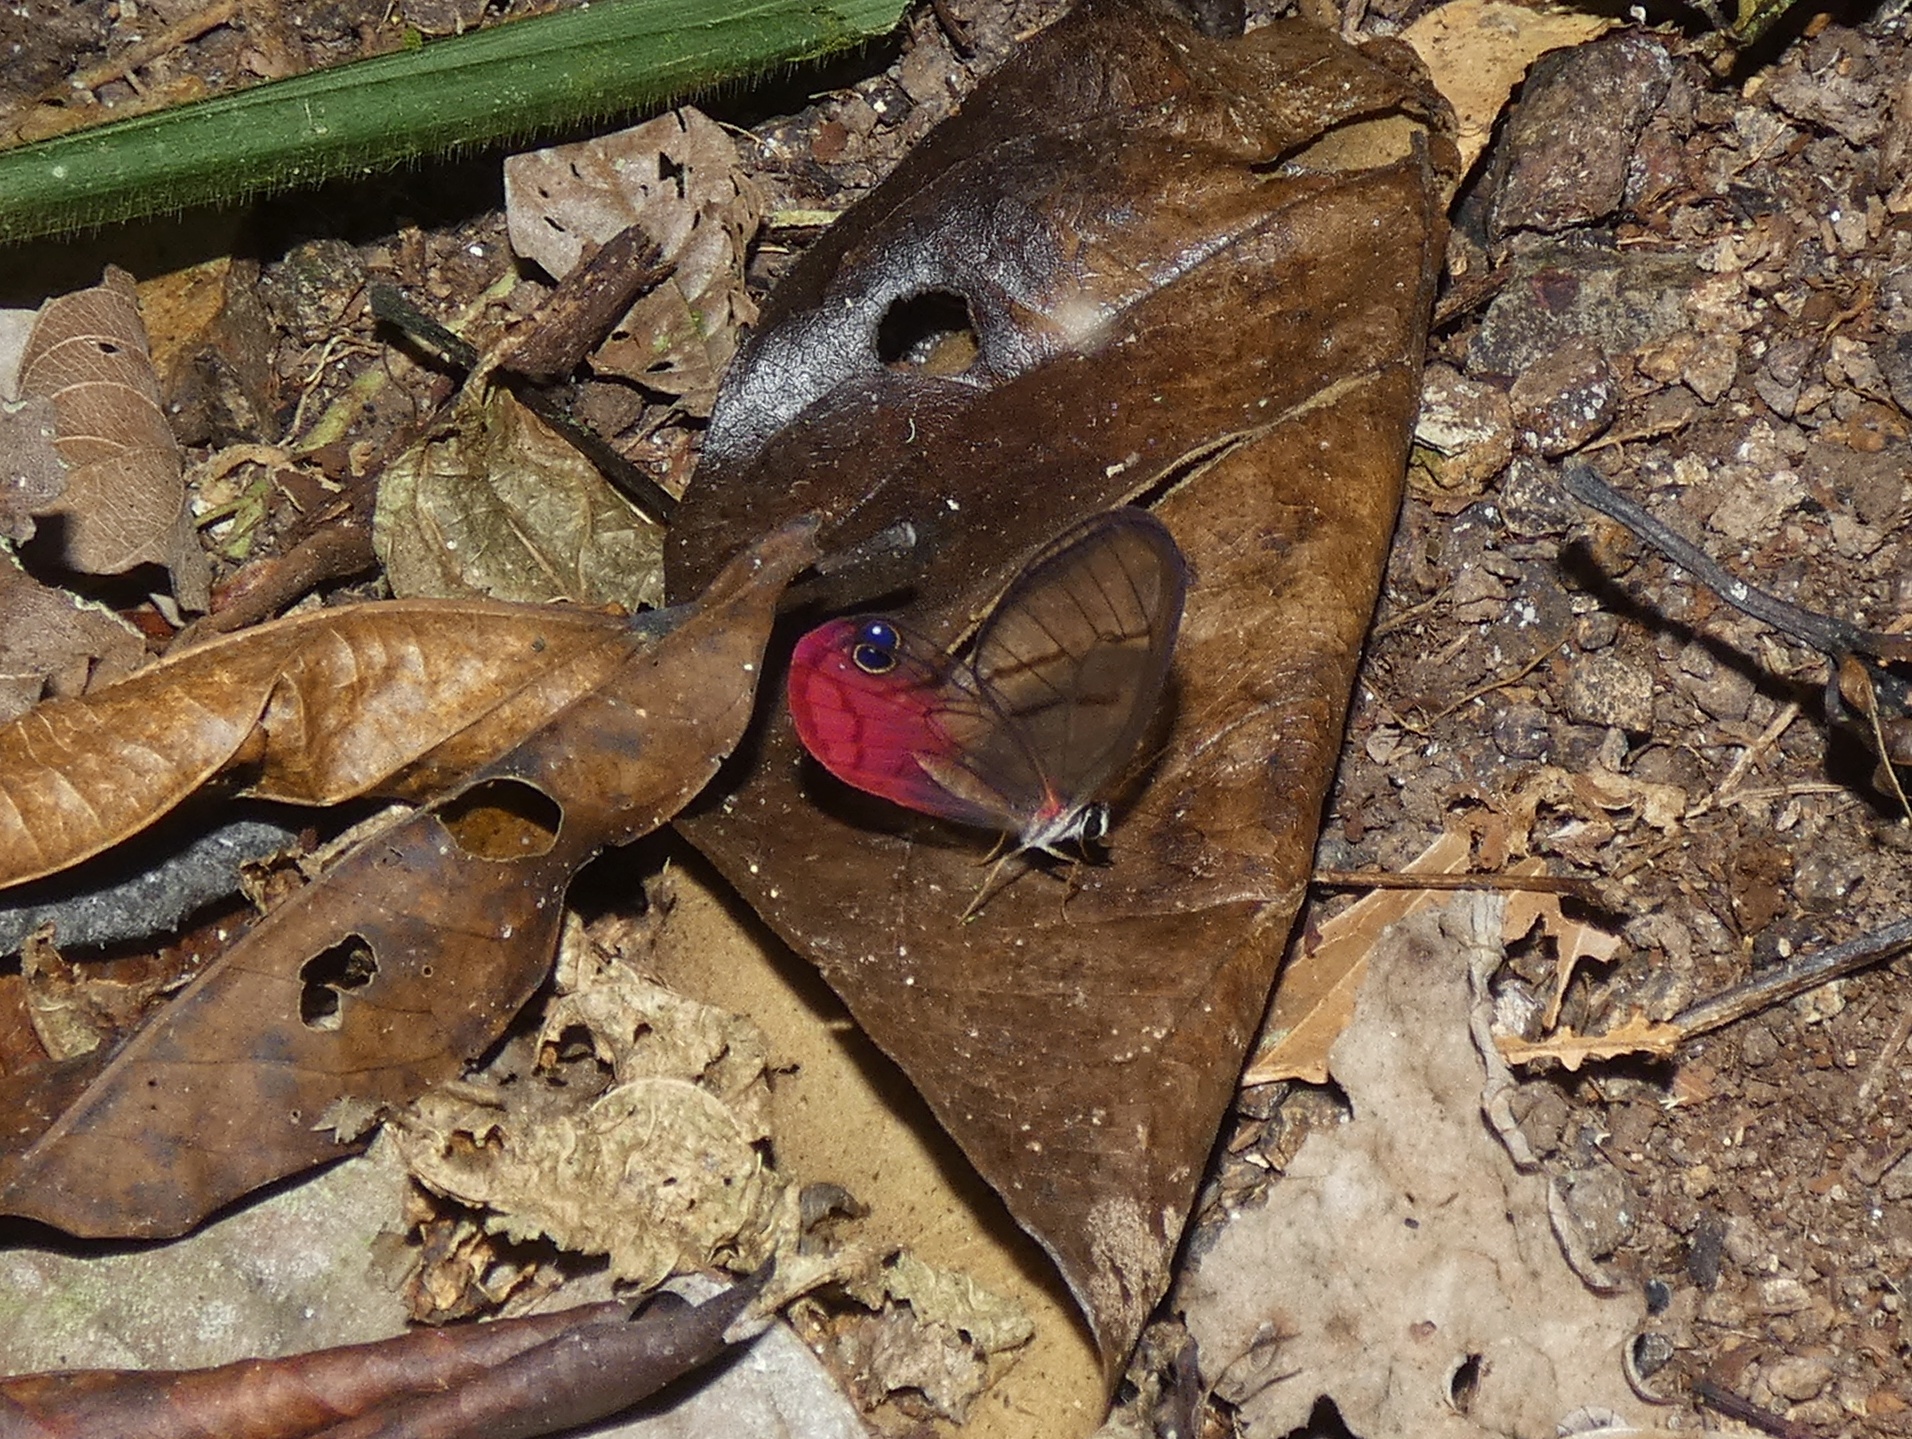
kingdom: Animalia
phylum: Arthropoda
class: Insecta
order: Lepidoptera
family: Nymphalidae
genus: Cithaerias
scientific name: Cithaerias pireta
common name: Rusted clearwing-satyr
